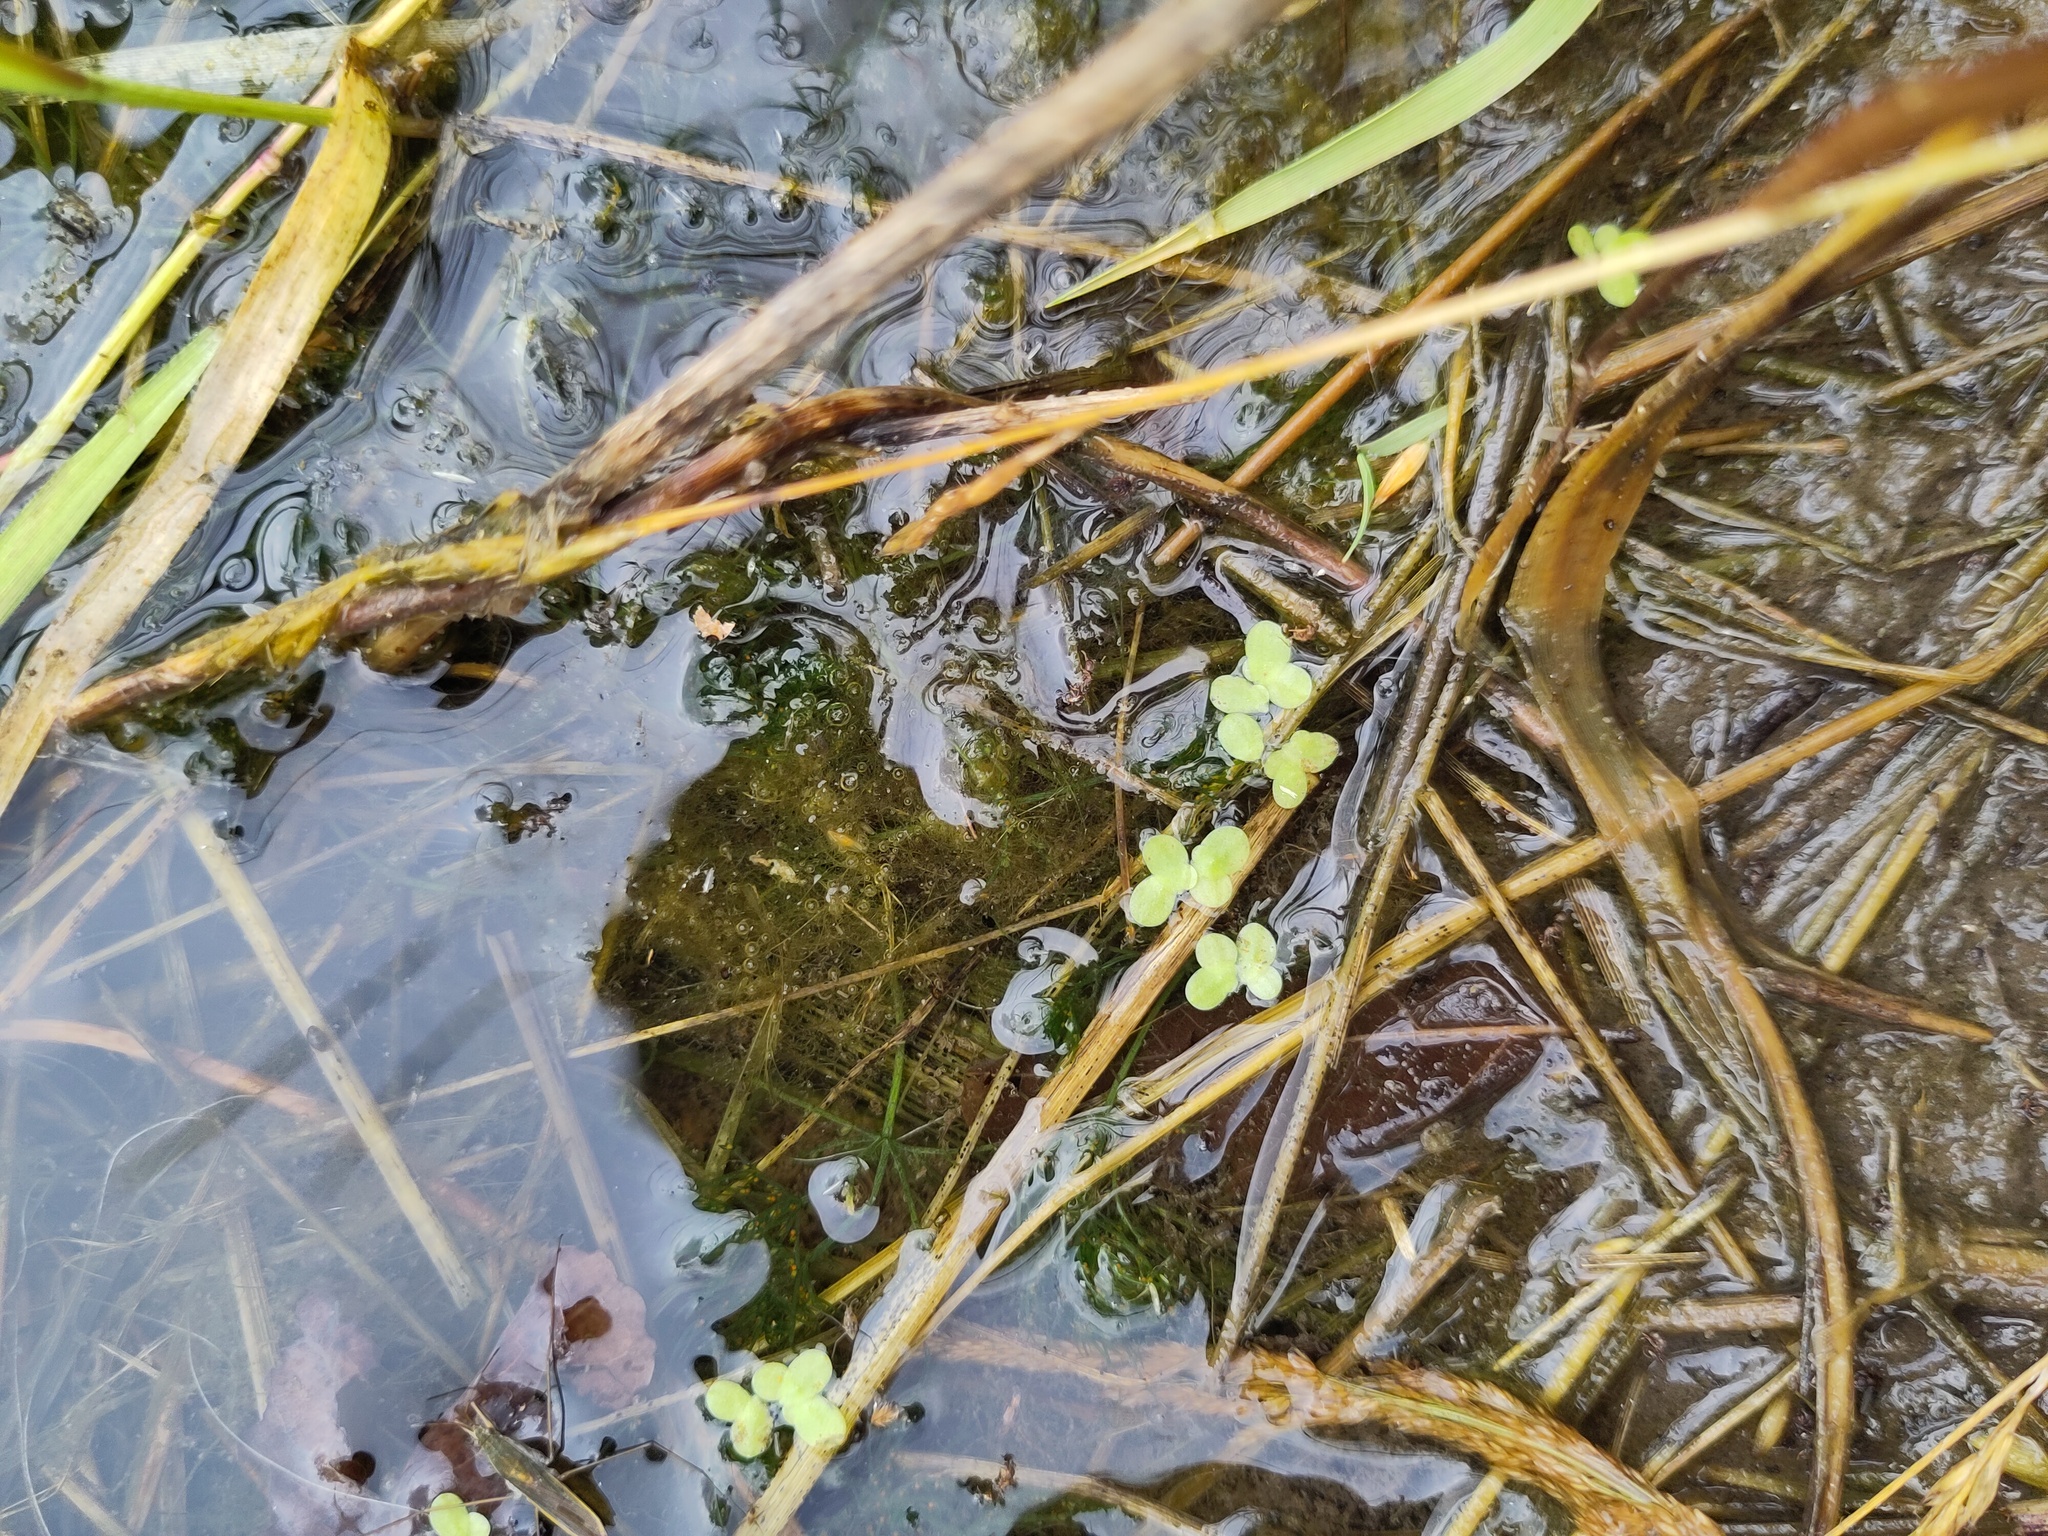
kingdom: Plantae
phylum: Tracheophyta
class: Liliopsida
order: Alismatales
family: Araceae
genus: Lemna
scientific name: Lemna minor
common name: Common duckweed
